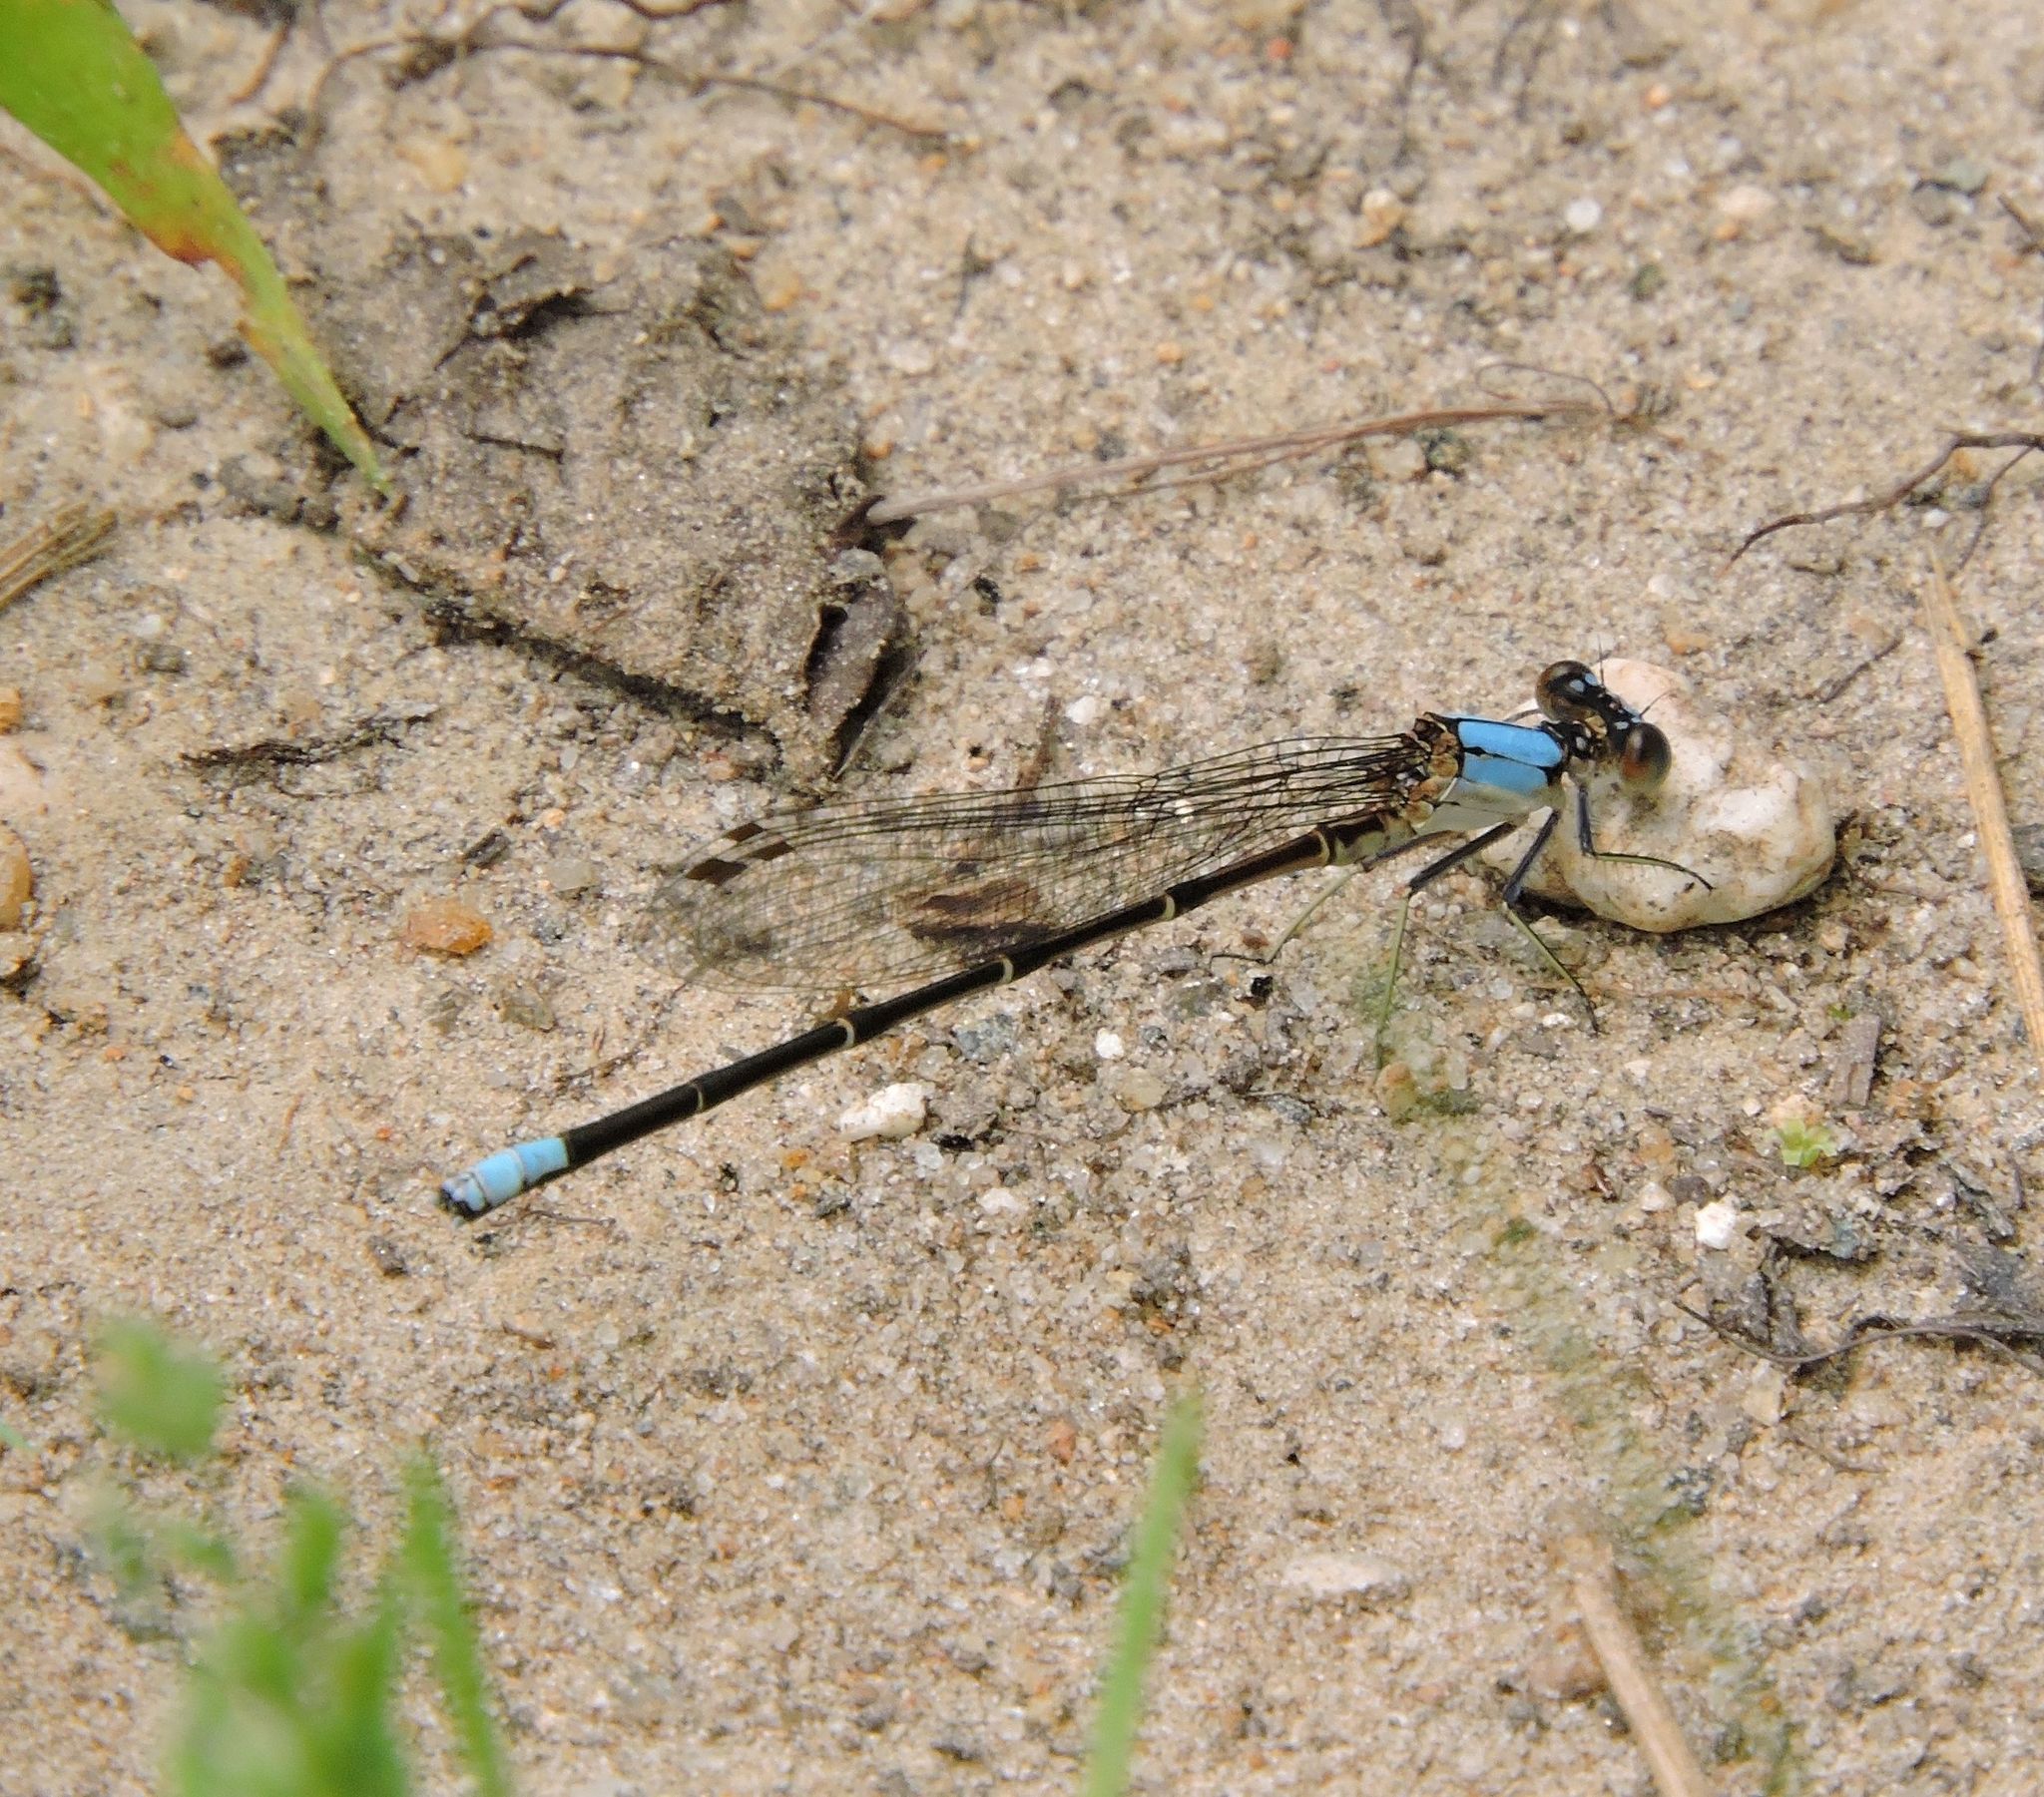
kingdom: Animalia
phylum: Arthropoda
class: Insecta
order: Odonata
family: Coenagrionidae
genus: Argia
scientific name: Argia apicalis
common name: Blue-fronted dancer
